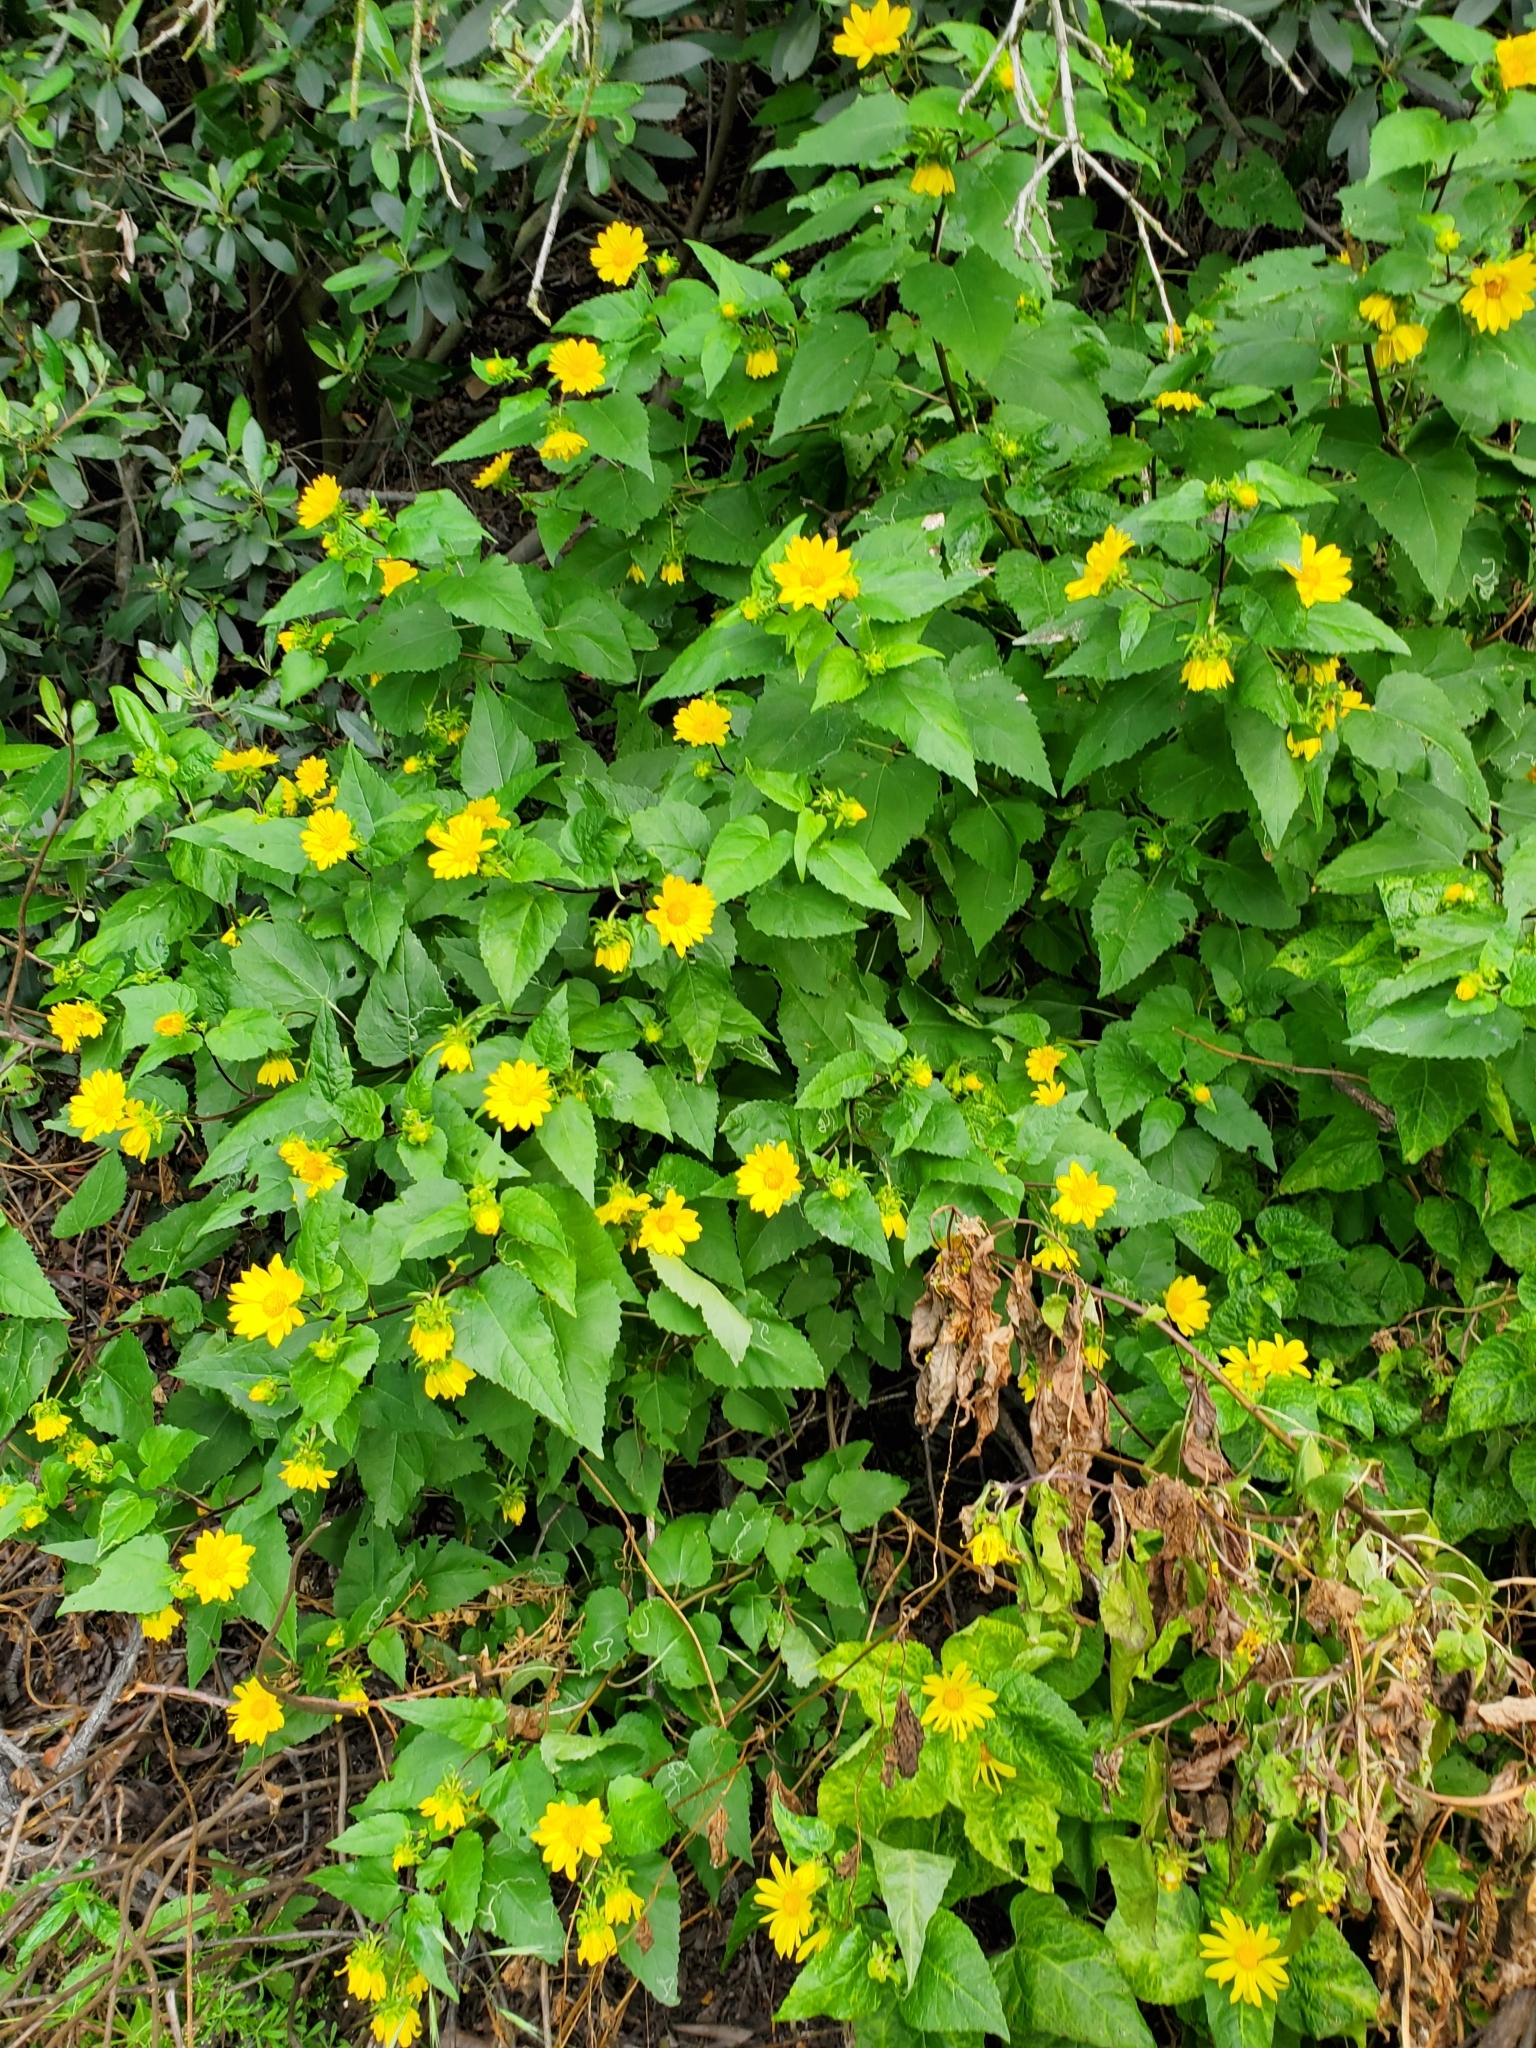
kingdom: Plantae
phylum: Tracheophyta
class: Magnoliopsida
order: Asterales
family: Asteraceae
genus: Venegasia
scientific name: Venegasia carpesioides
